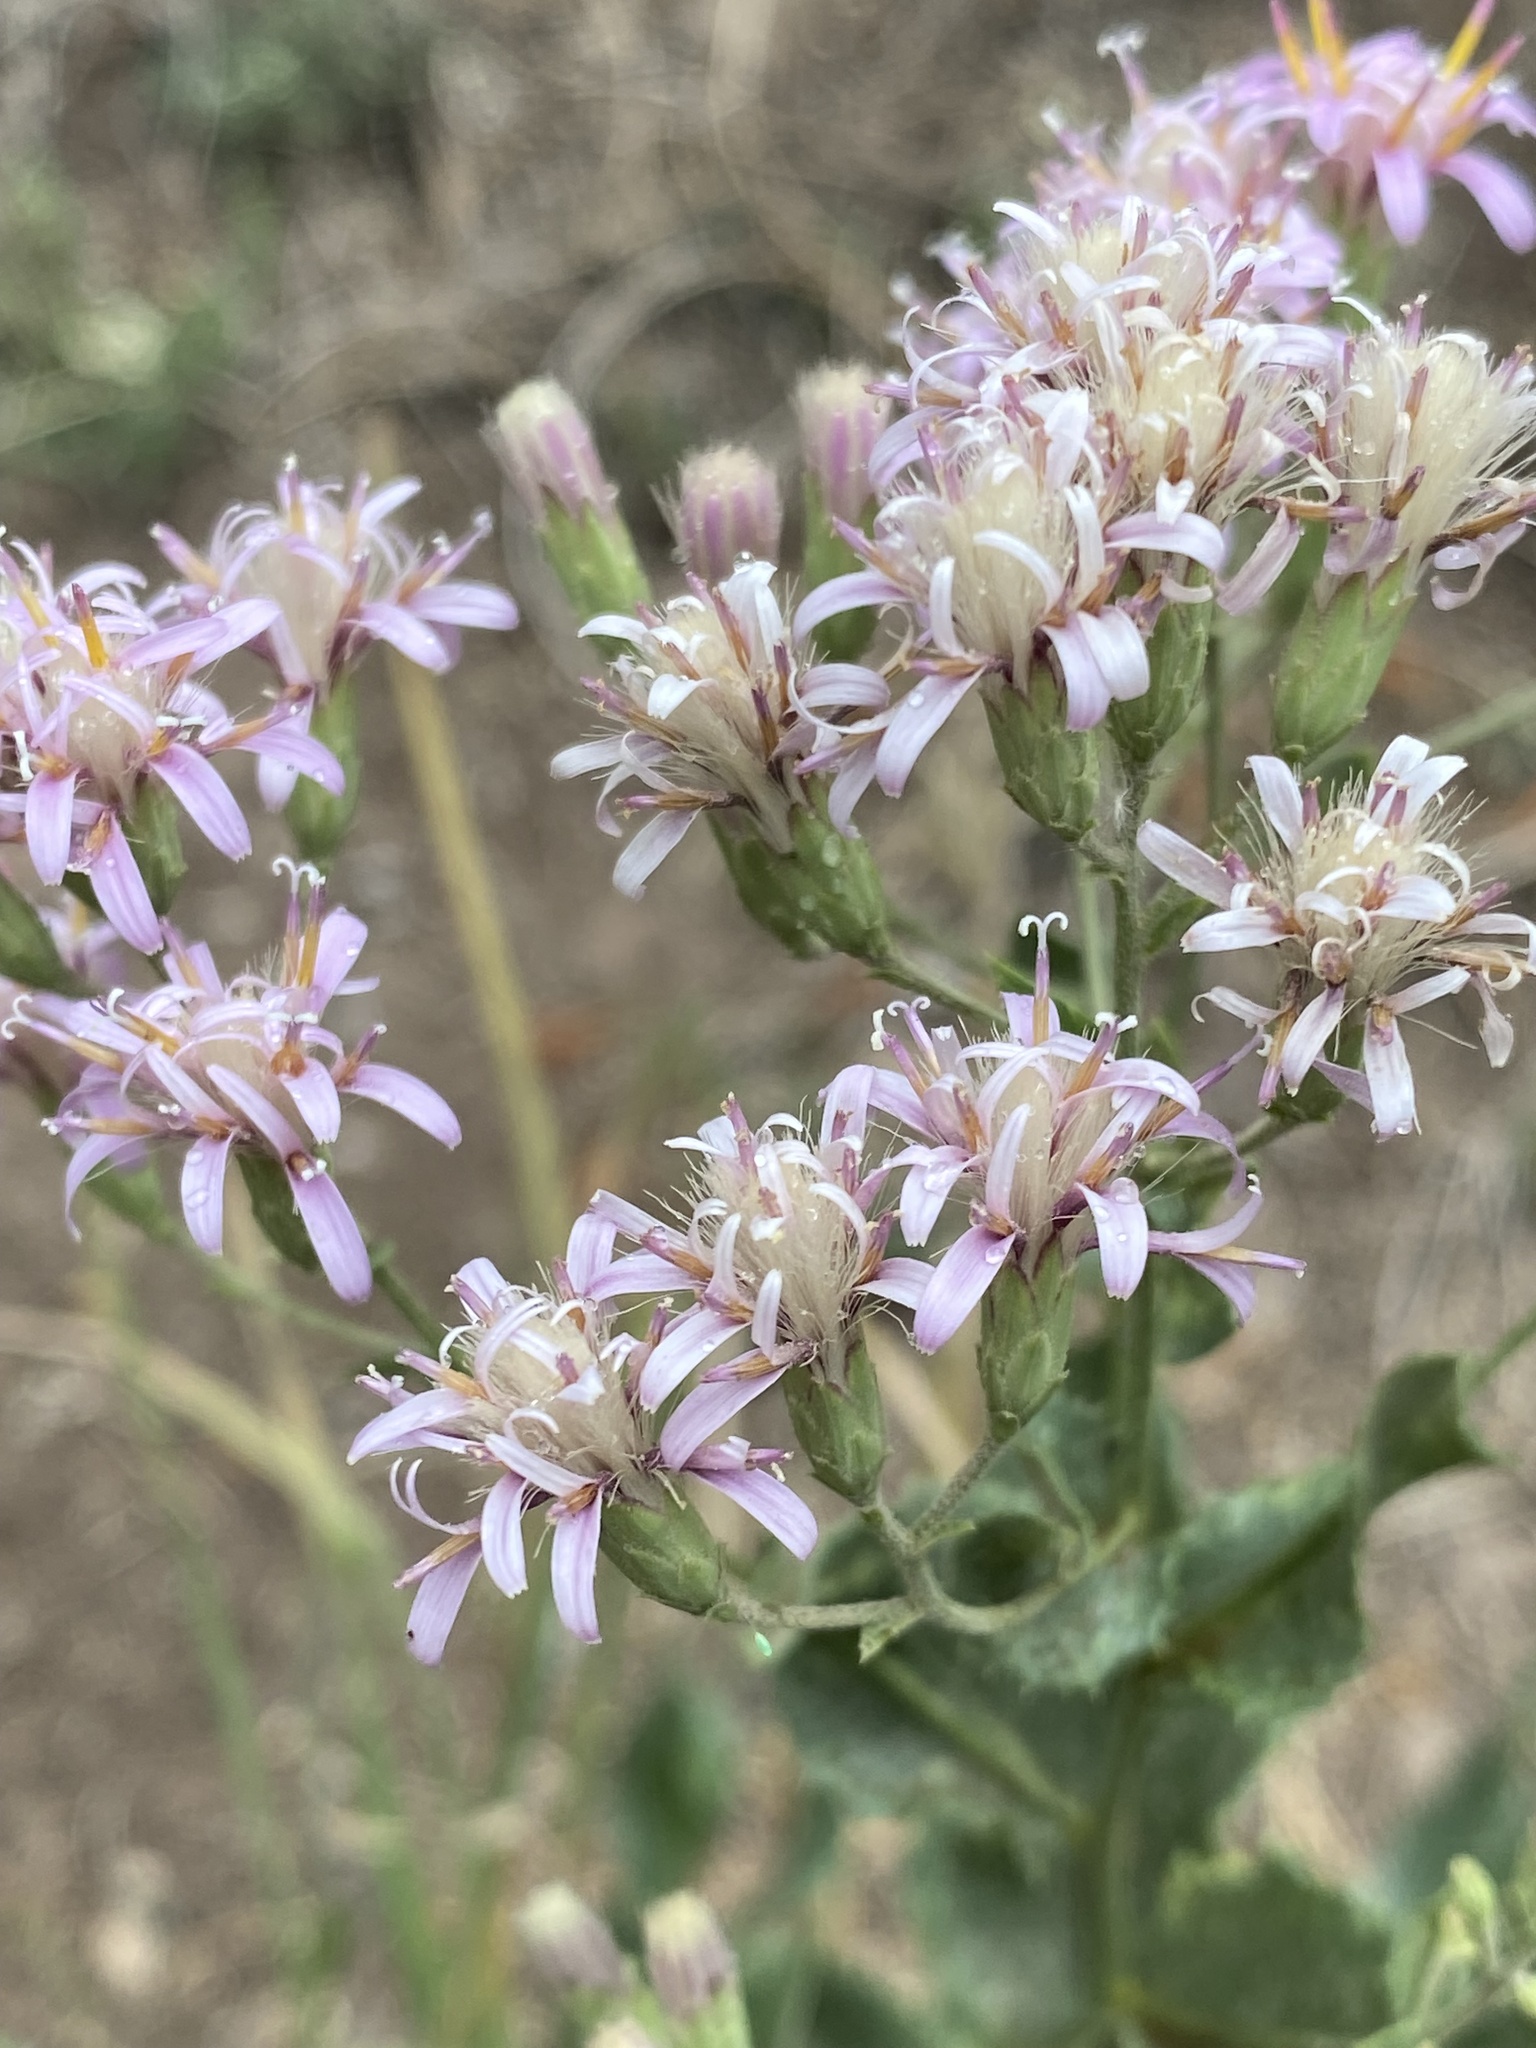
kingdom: Plantae
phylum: Tracheophyta
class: Magnoliopsida
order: Asterales
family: Asteraceae
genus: Acourtia
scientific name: Acourtia wrightii
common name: Brownfoot
